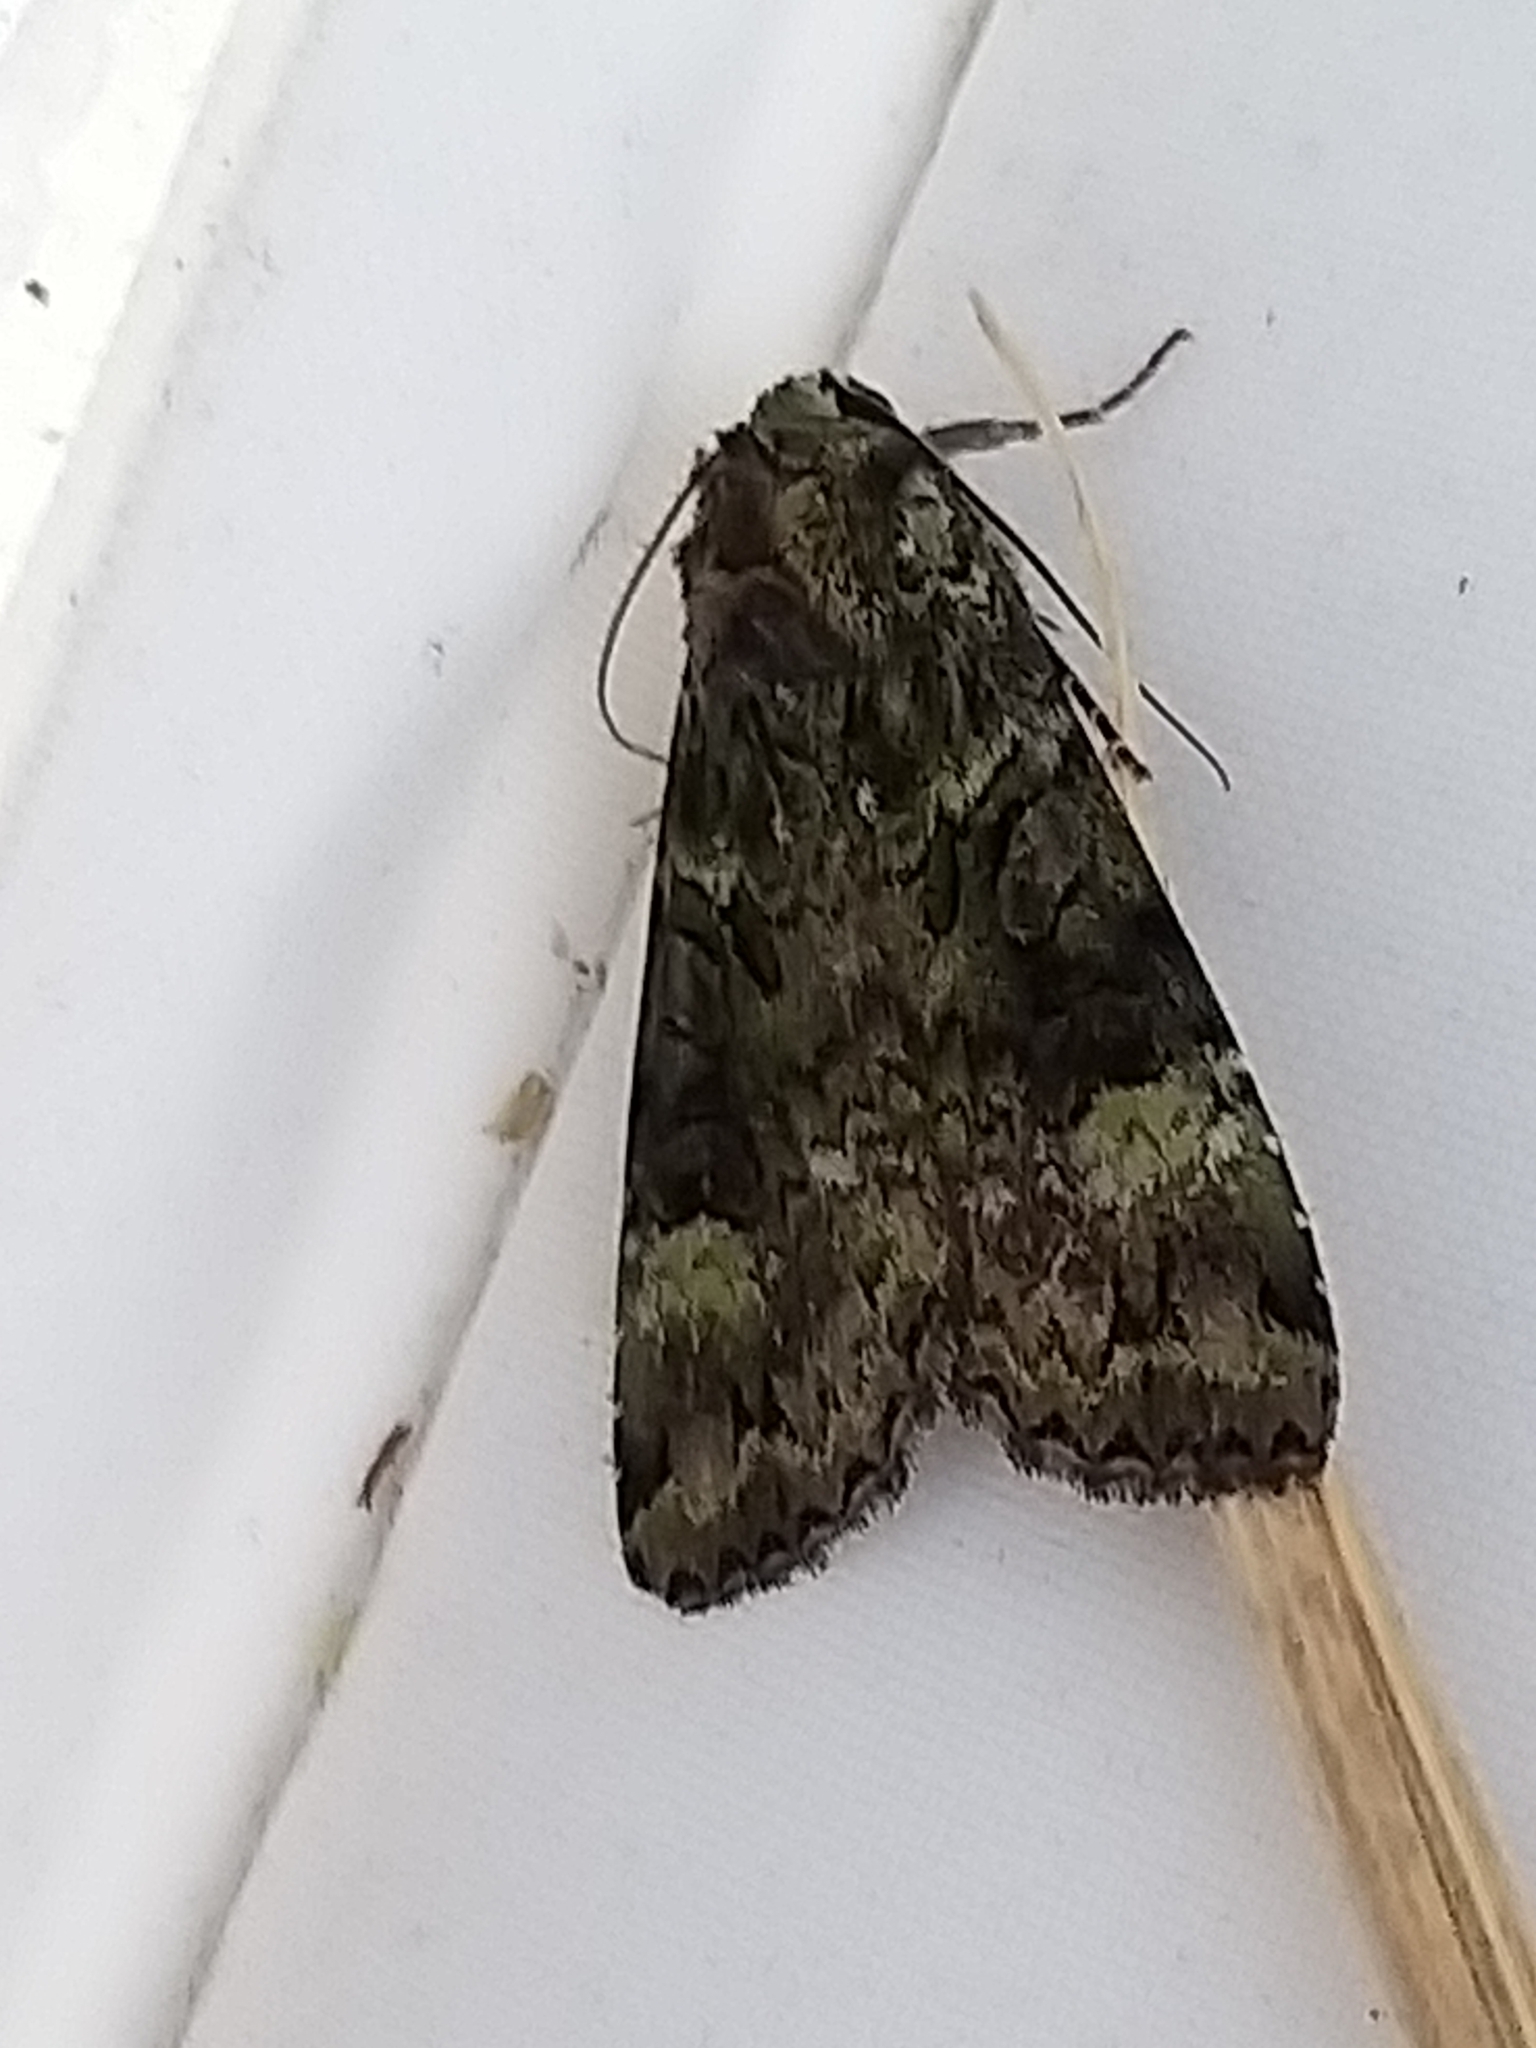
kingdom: Animalia
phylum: Arthropoda
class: Insecta
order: Lepidoptera
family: Noctuidae
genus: Anaplectoides
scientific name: Anaplectoides prasina
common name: Green arches
